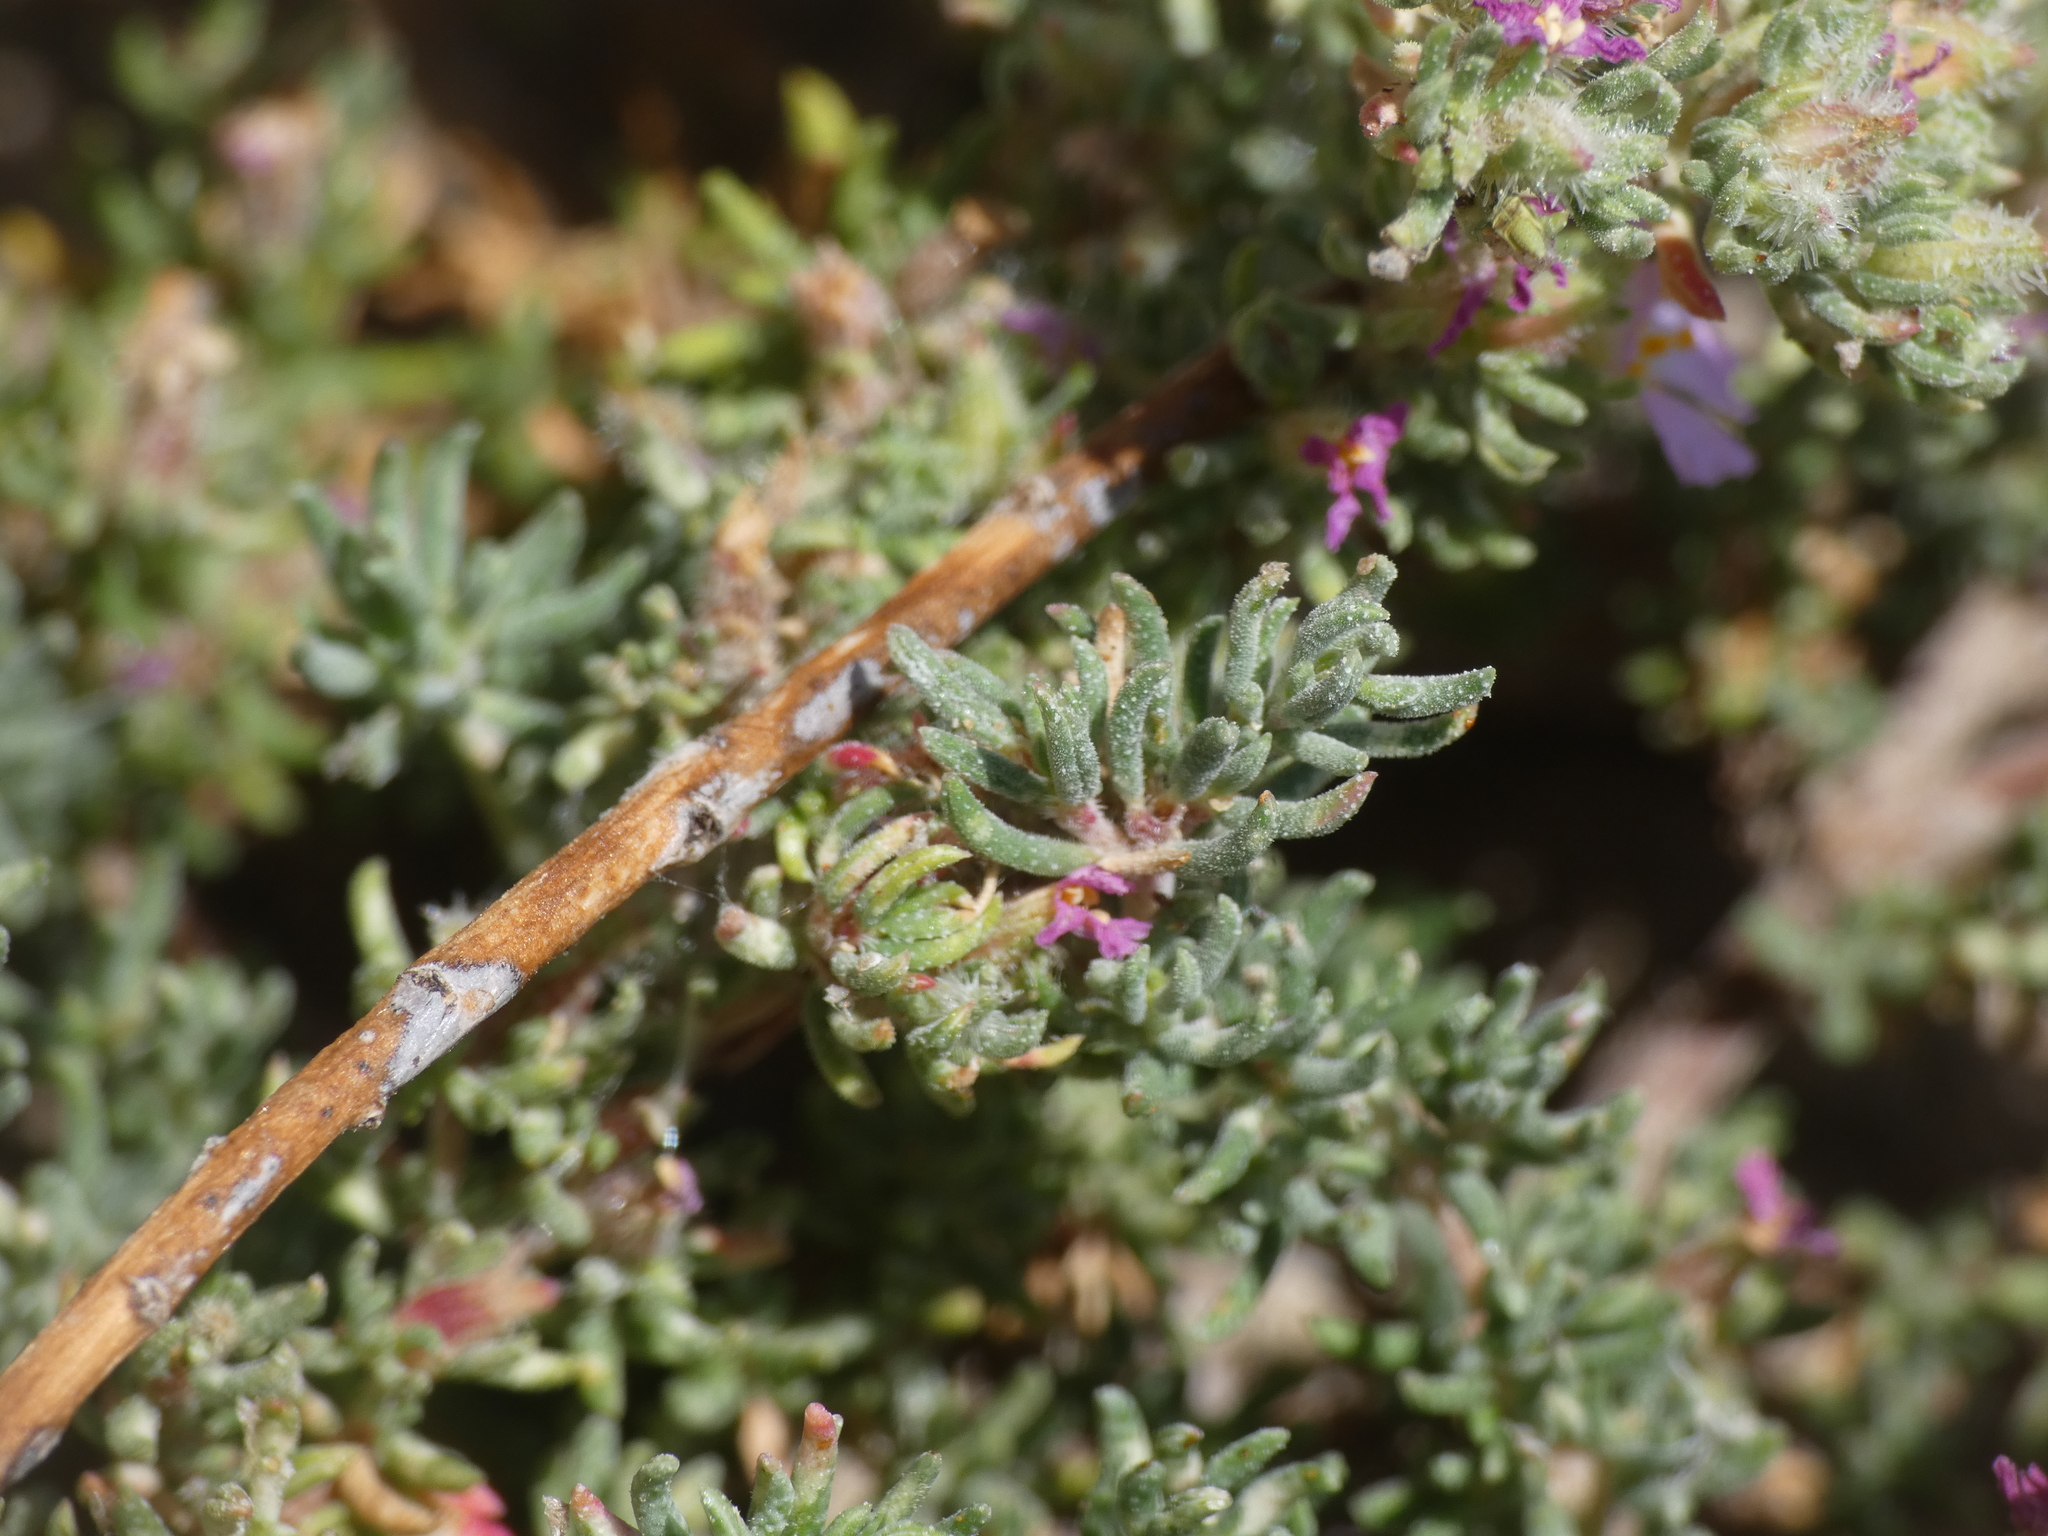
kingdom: Plantae
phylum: Tracheophyta
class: Magnoliopsida
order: Caryophyllales
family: Frankeniaceae
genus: Frankenia
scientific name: Frankenia hirsuta
